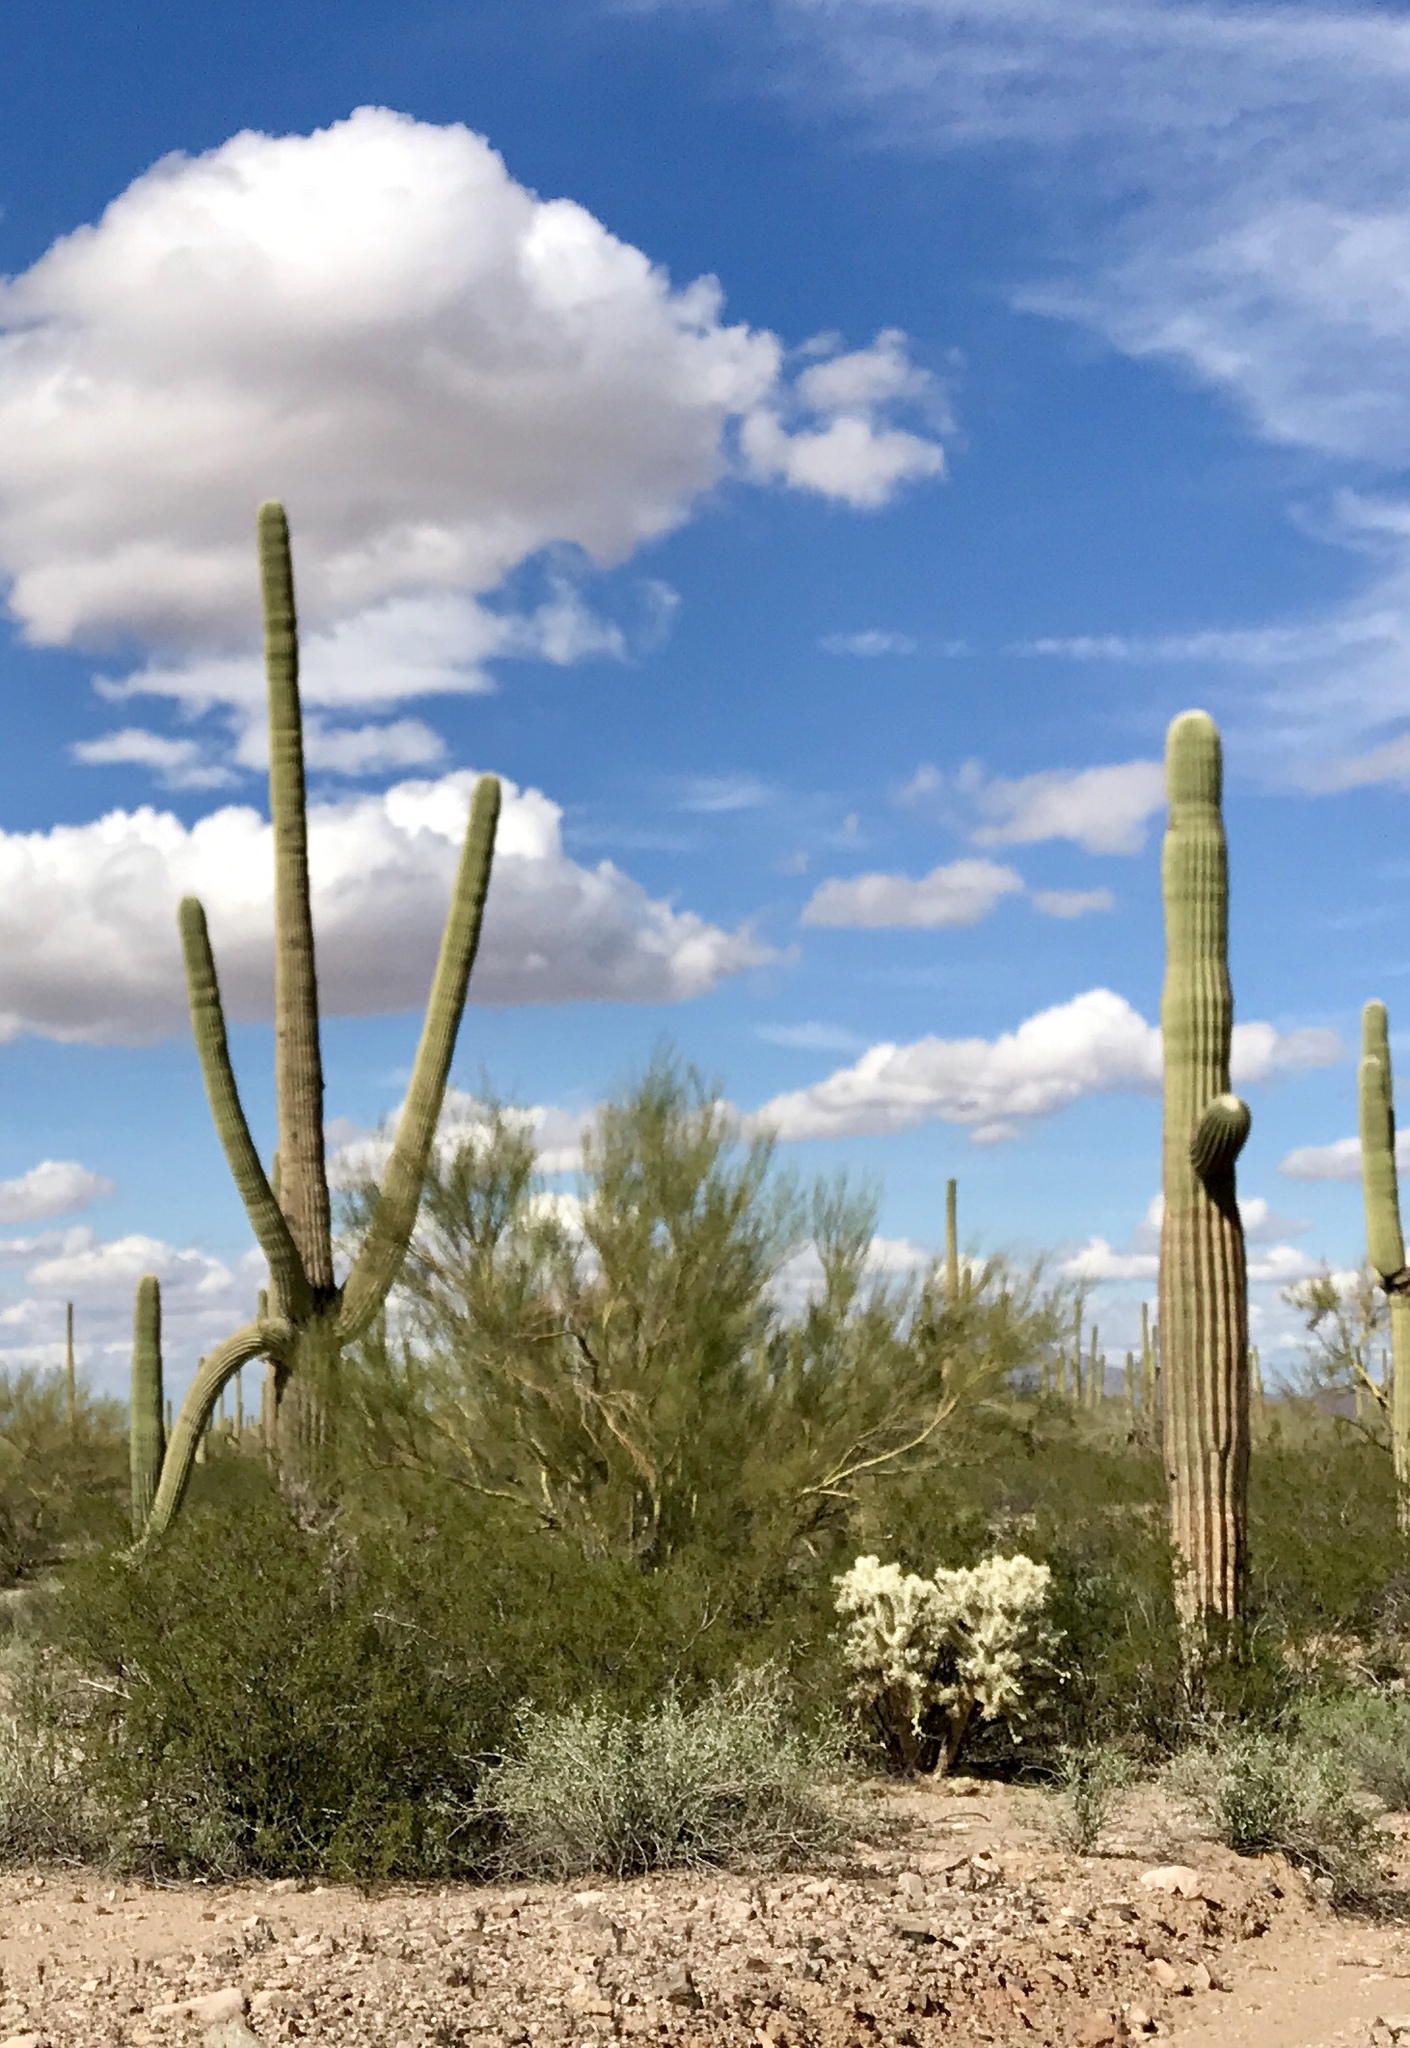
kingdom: Plantae
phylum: Tracheophyta
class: Magnoliopsida
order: Caryophyllales
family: Cactaceae
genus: Carnegiea
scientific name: Carnegiea gigantea
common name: Saguaro
